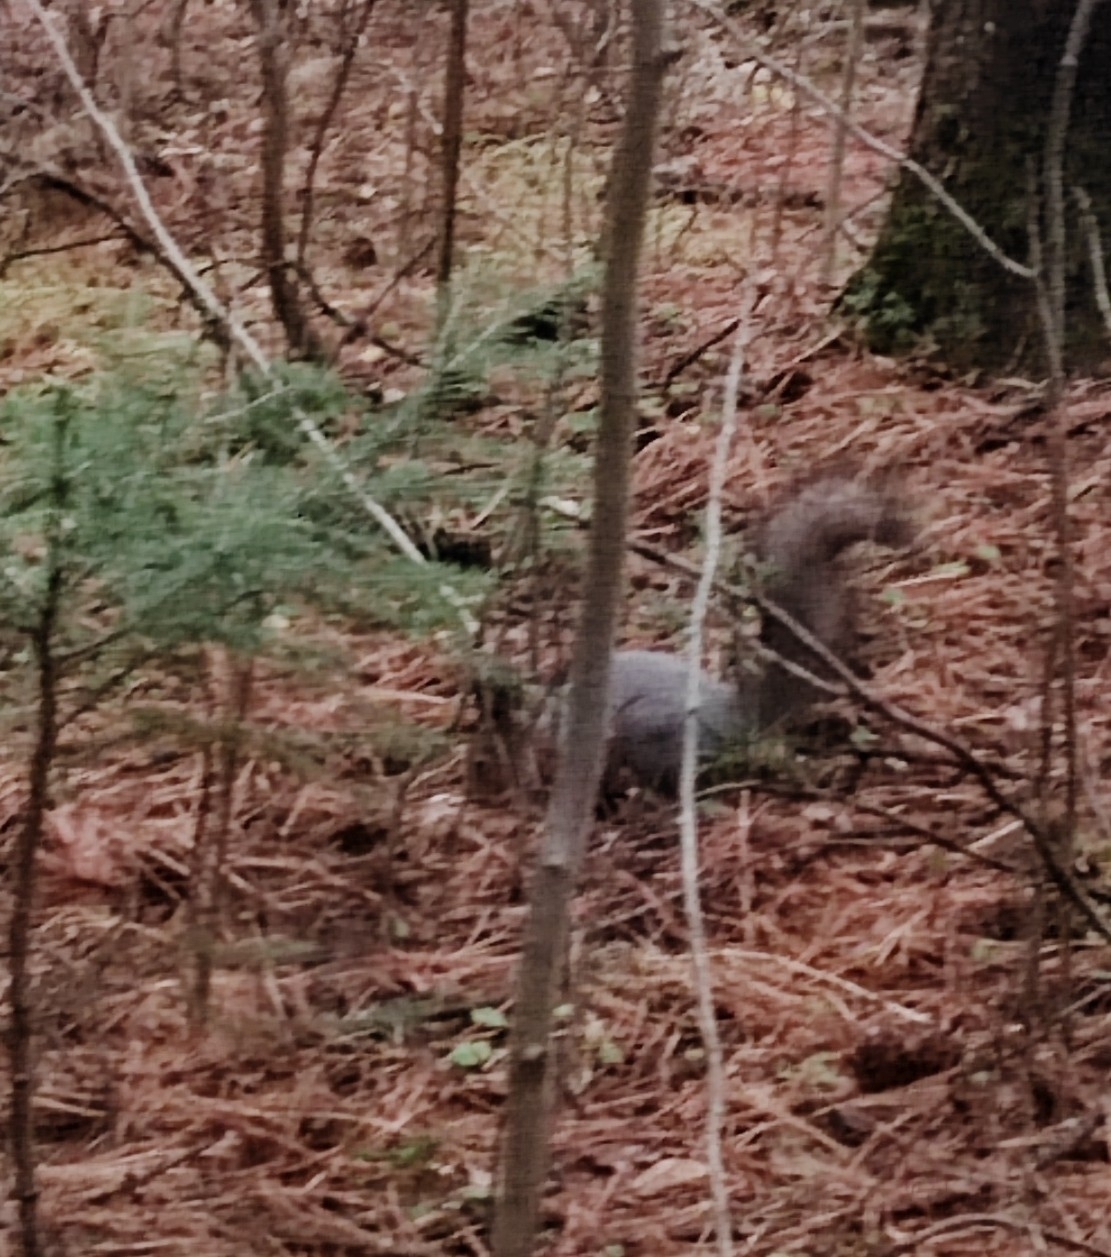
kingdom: Animalia
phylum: Chordata
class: Mammalia
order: Rodentia
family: Sciuridae
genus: Sciurus
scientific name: Sciurus vulgaris
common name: Eurasian red squirrel
